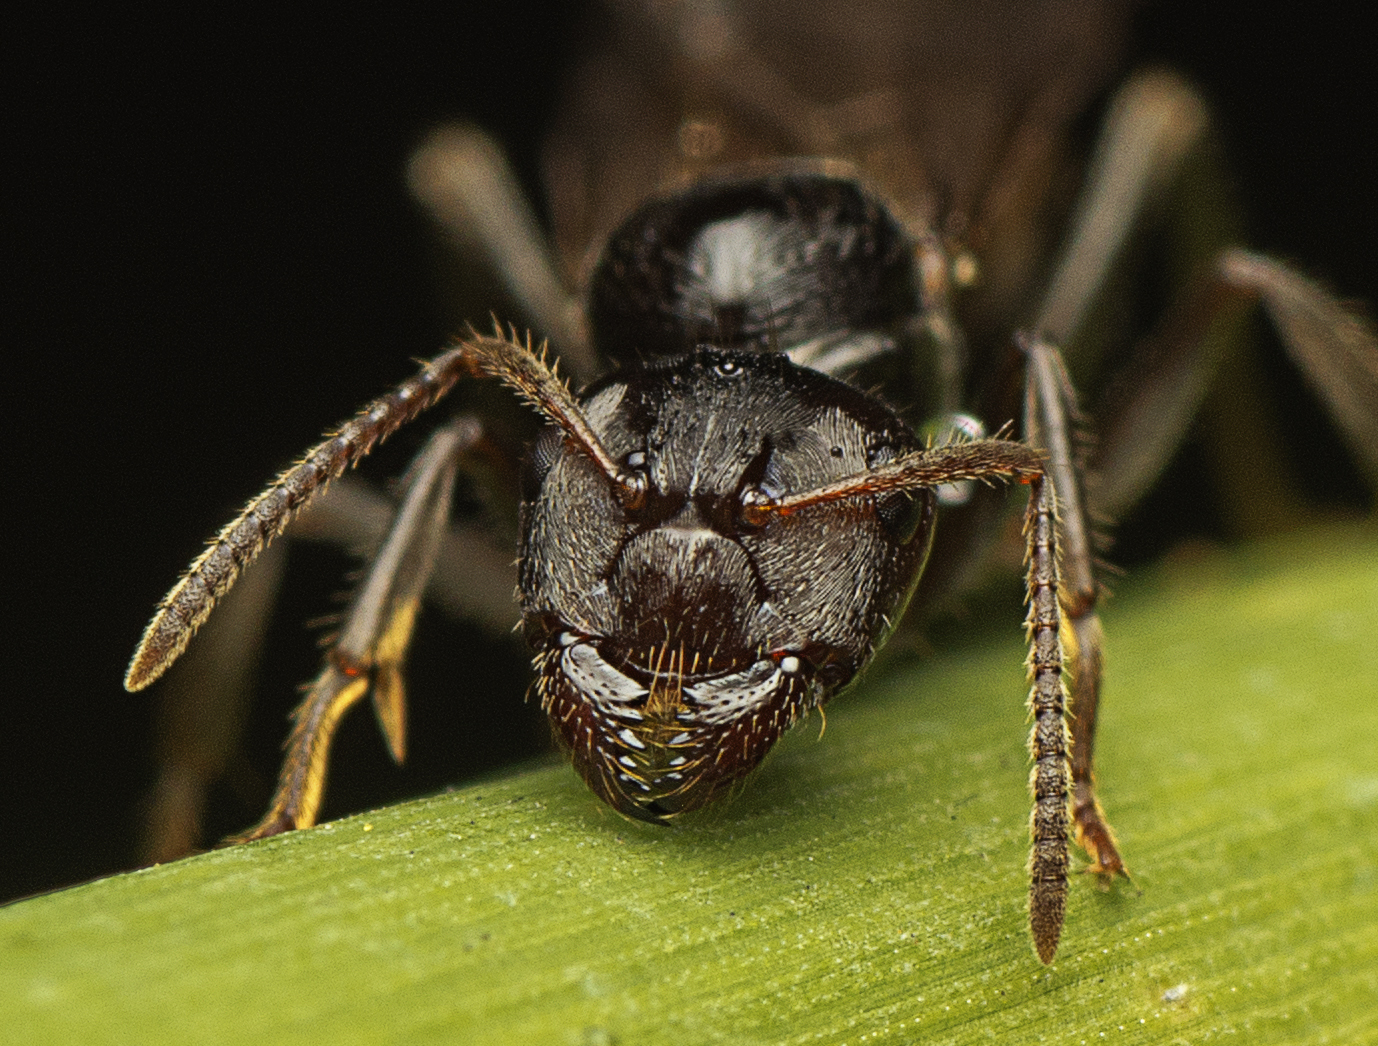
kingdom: Animalia
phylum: Arthropoda
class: Insecta
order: Hymenoptera
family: Formicidae
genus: Notoncus
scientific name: Notoncus capitatus
